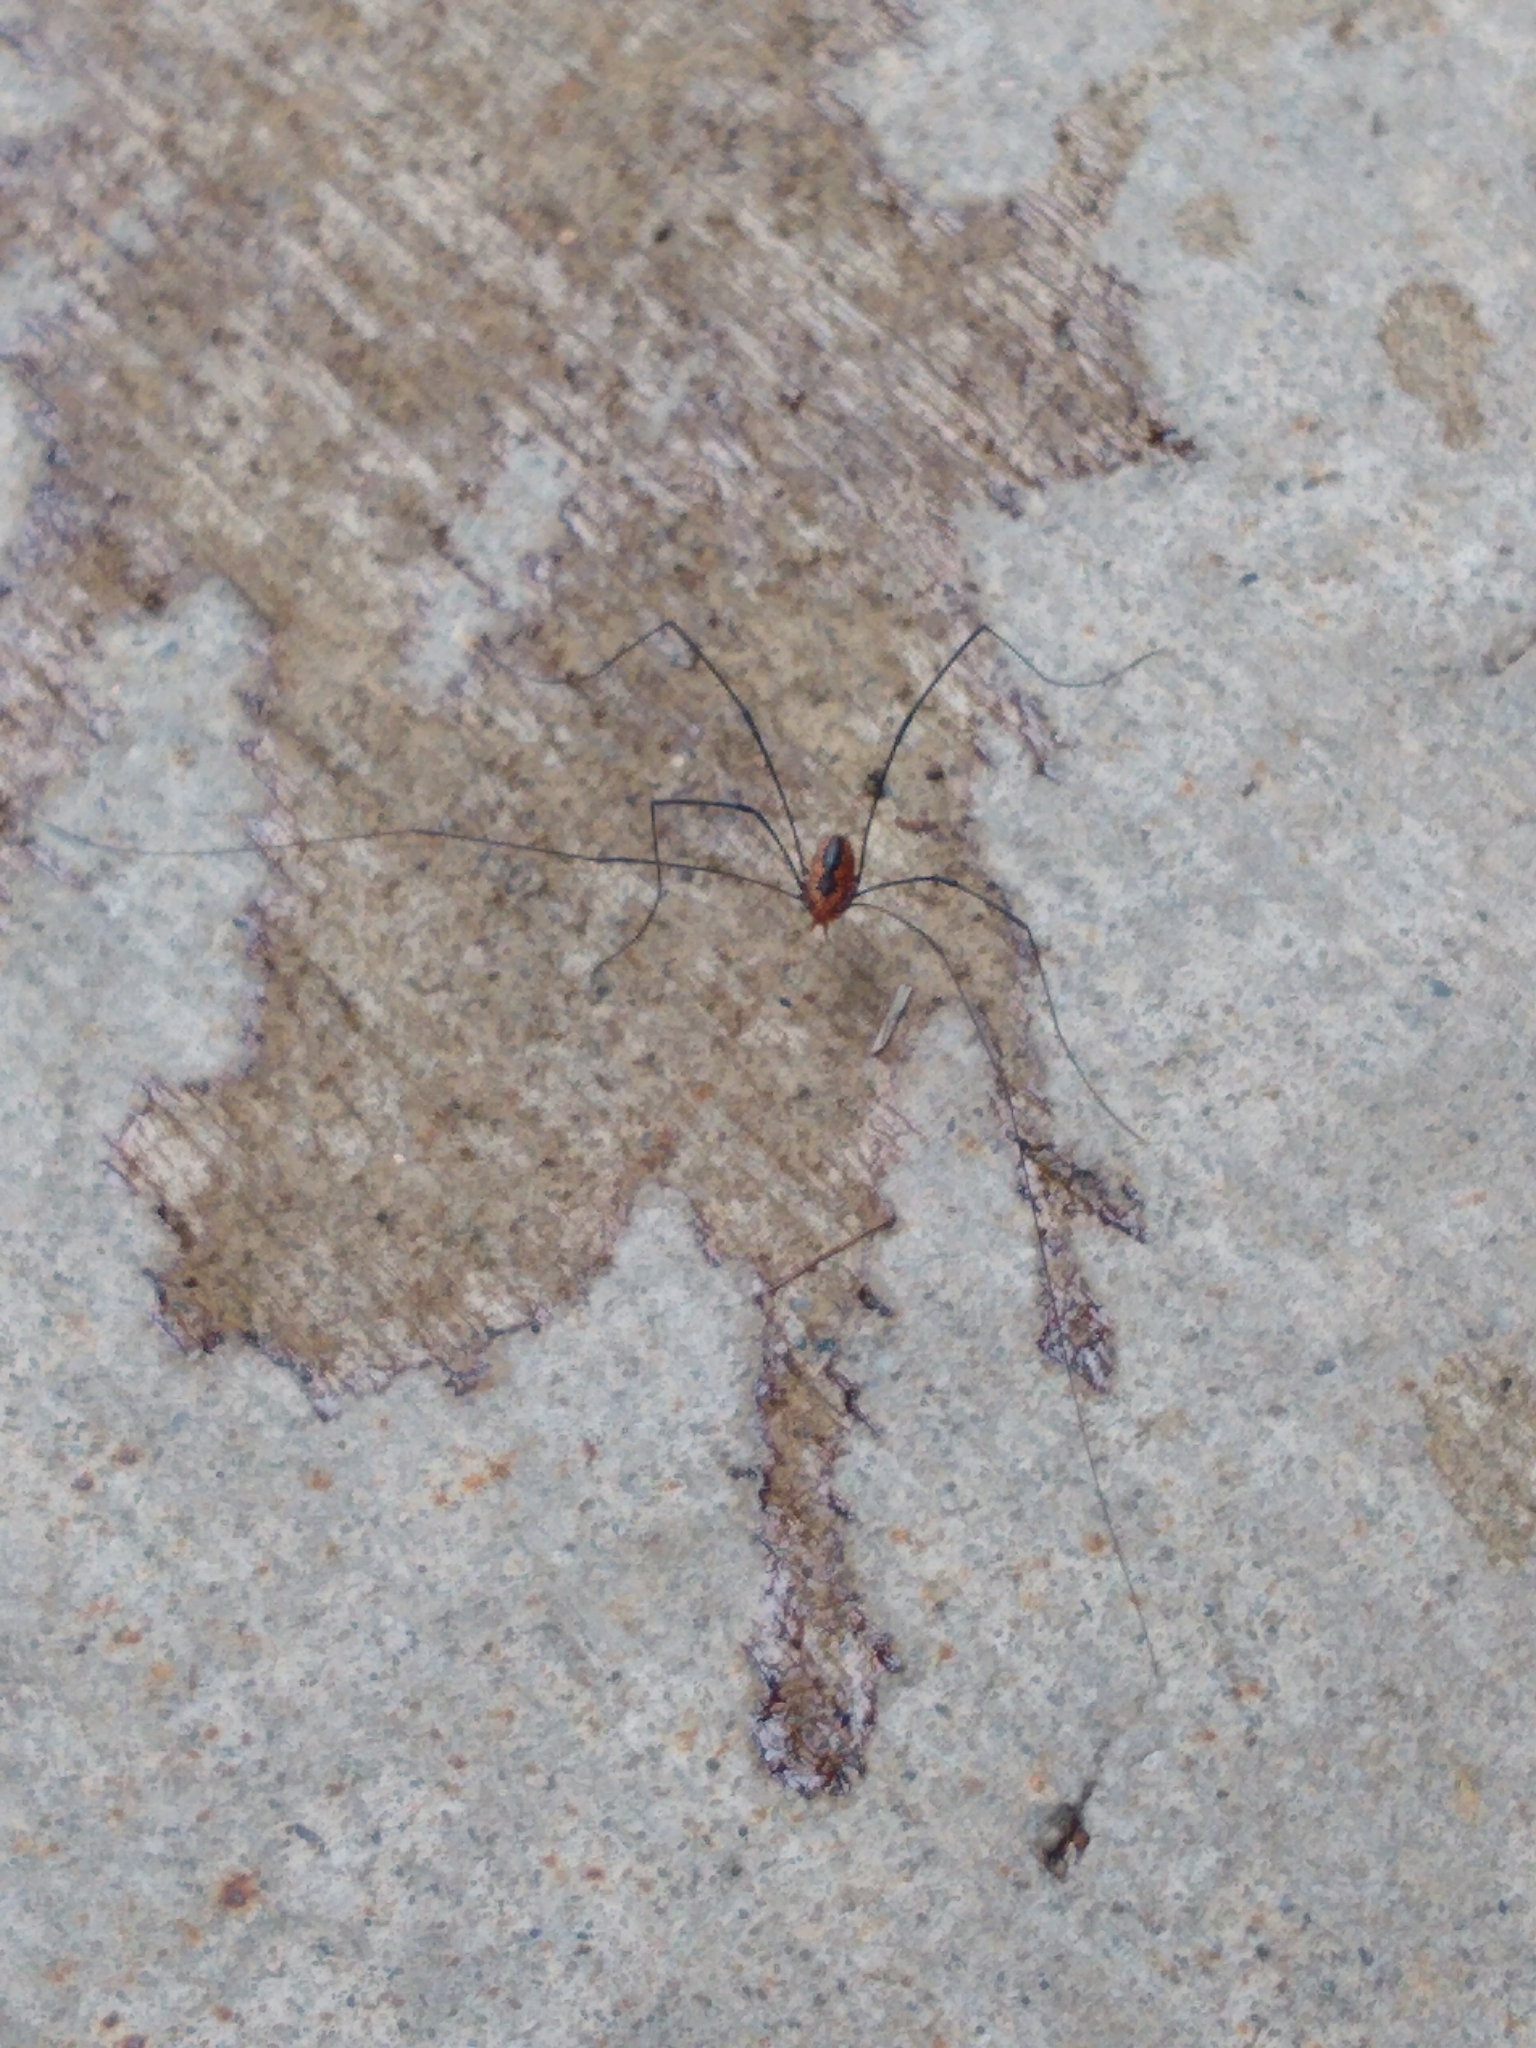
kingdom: Animalia
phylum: Arthropoda
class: Arachnida
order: Opiliones
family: Sclerosomatidae
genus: Leiobunum
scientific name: Leiobunum vittatum
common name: Eastern harvestman
